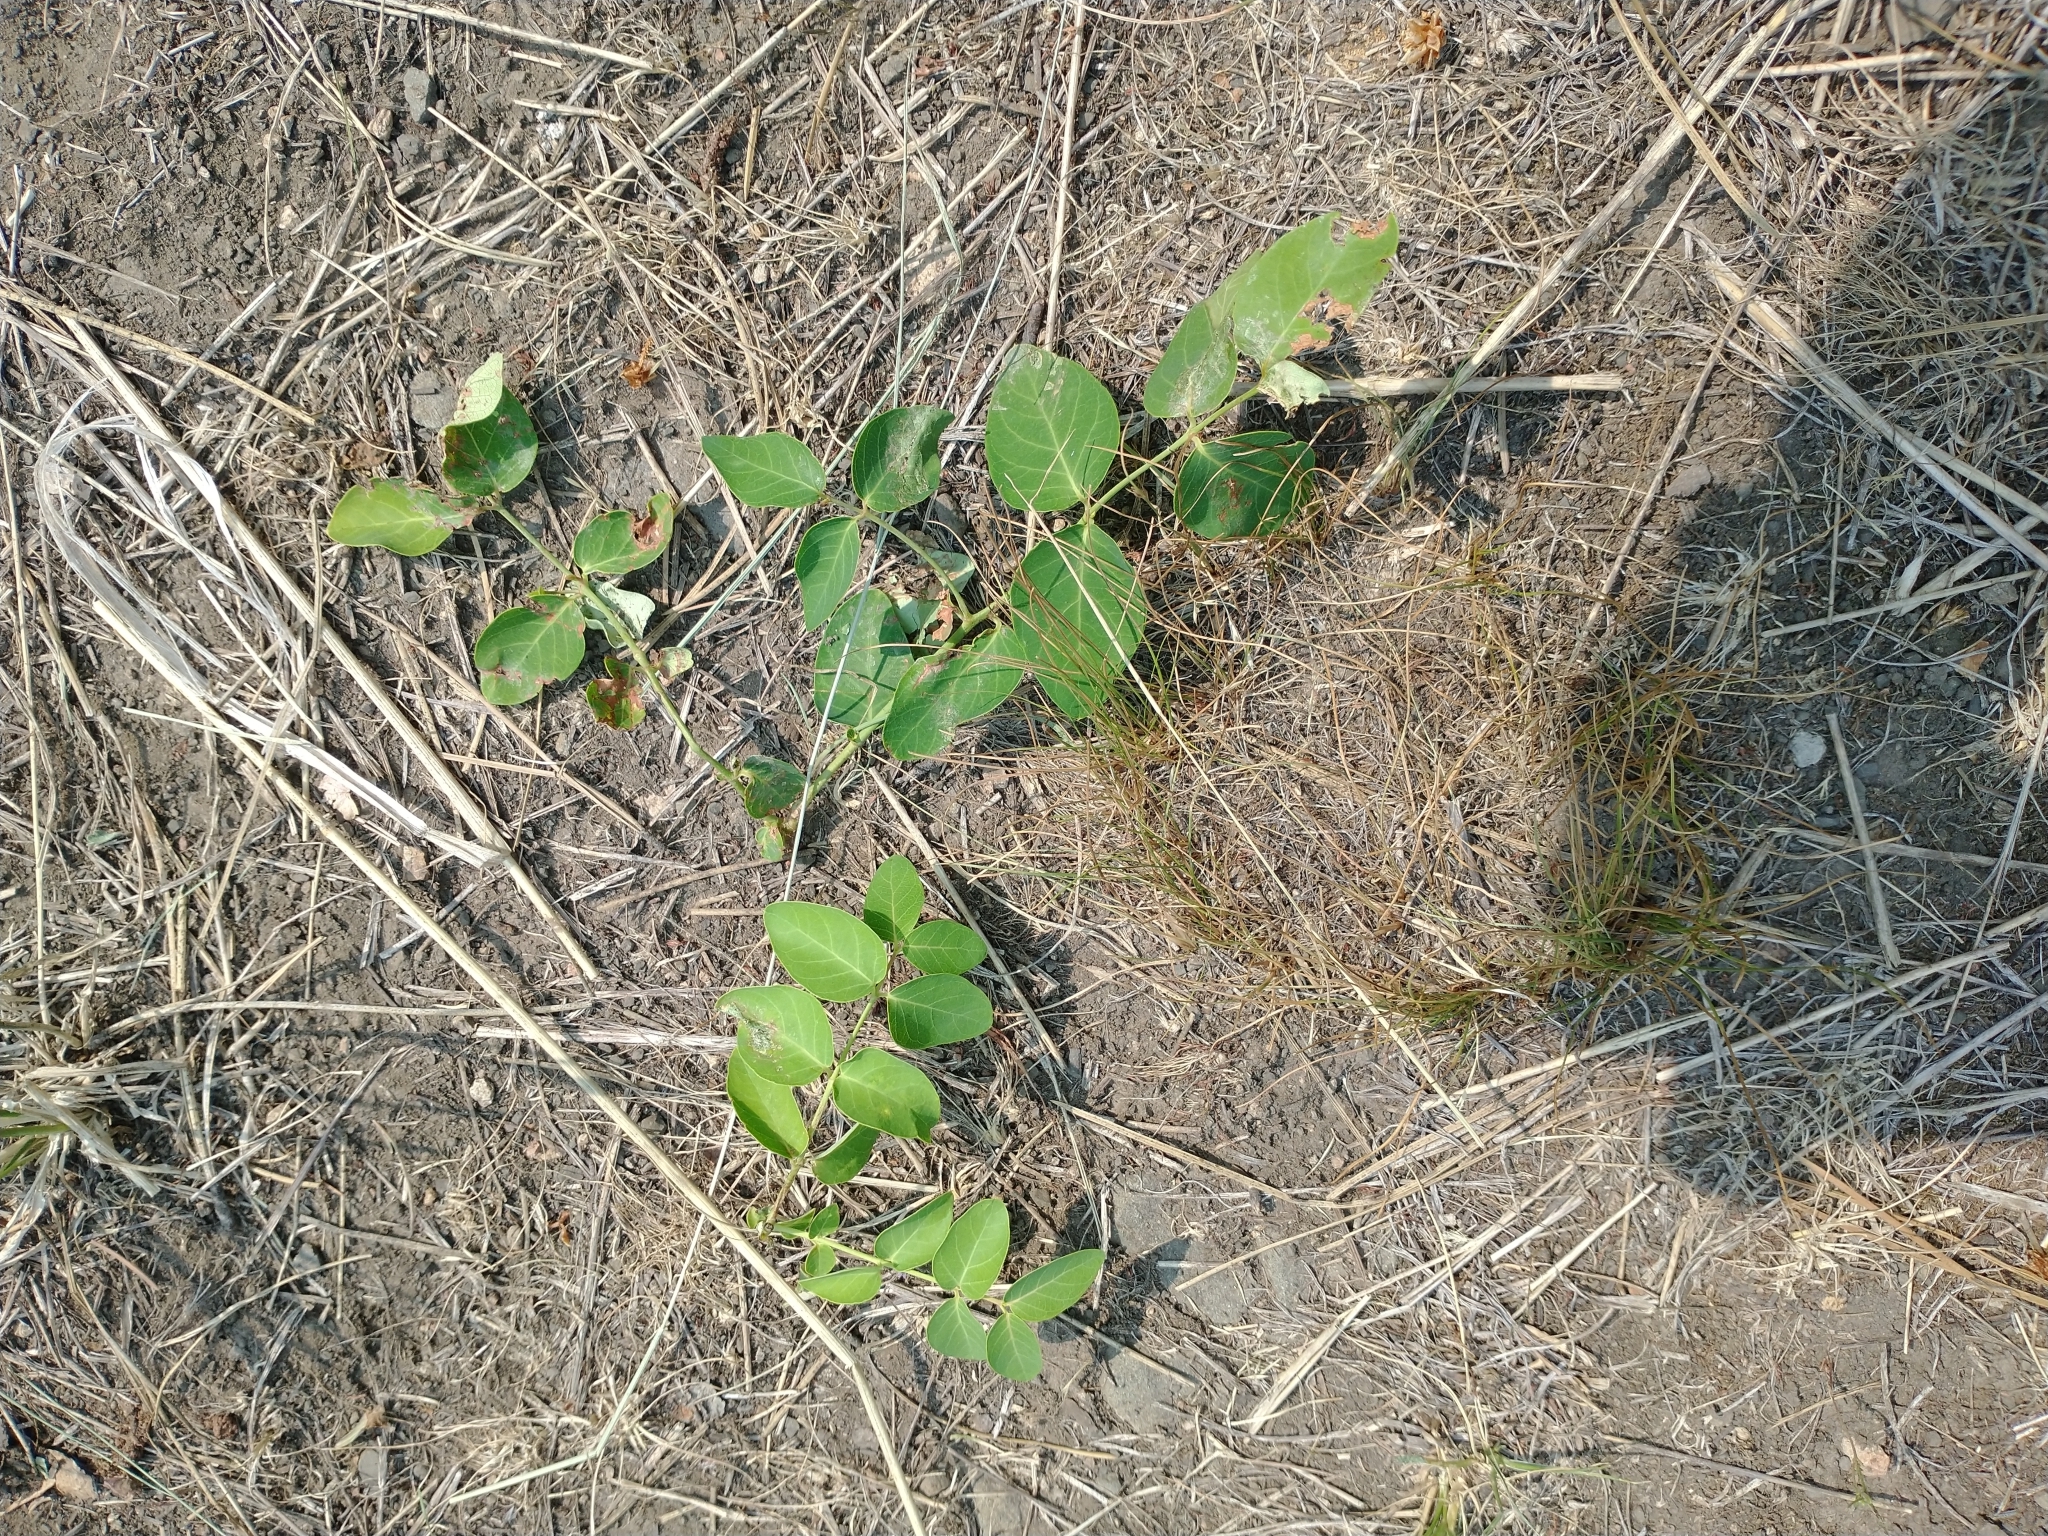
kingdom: Plantae
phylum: Tracheophyta
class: Magnoliopsida
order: Gentianales
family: Apocynaceae
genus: Apocynum
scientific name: Apocynum androsaemifolium
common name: Spreading dogbane
